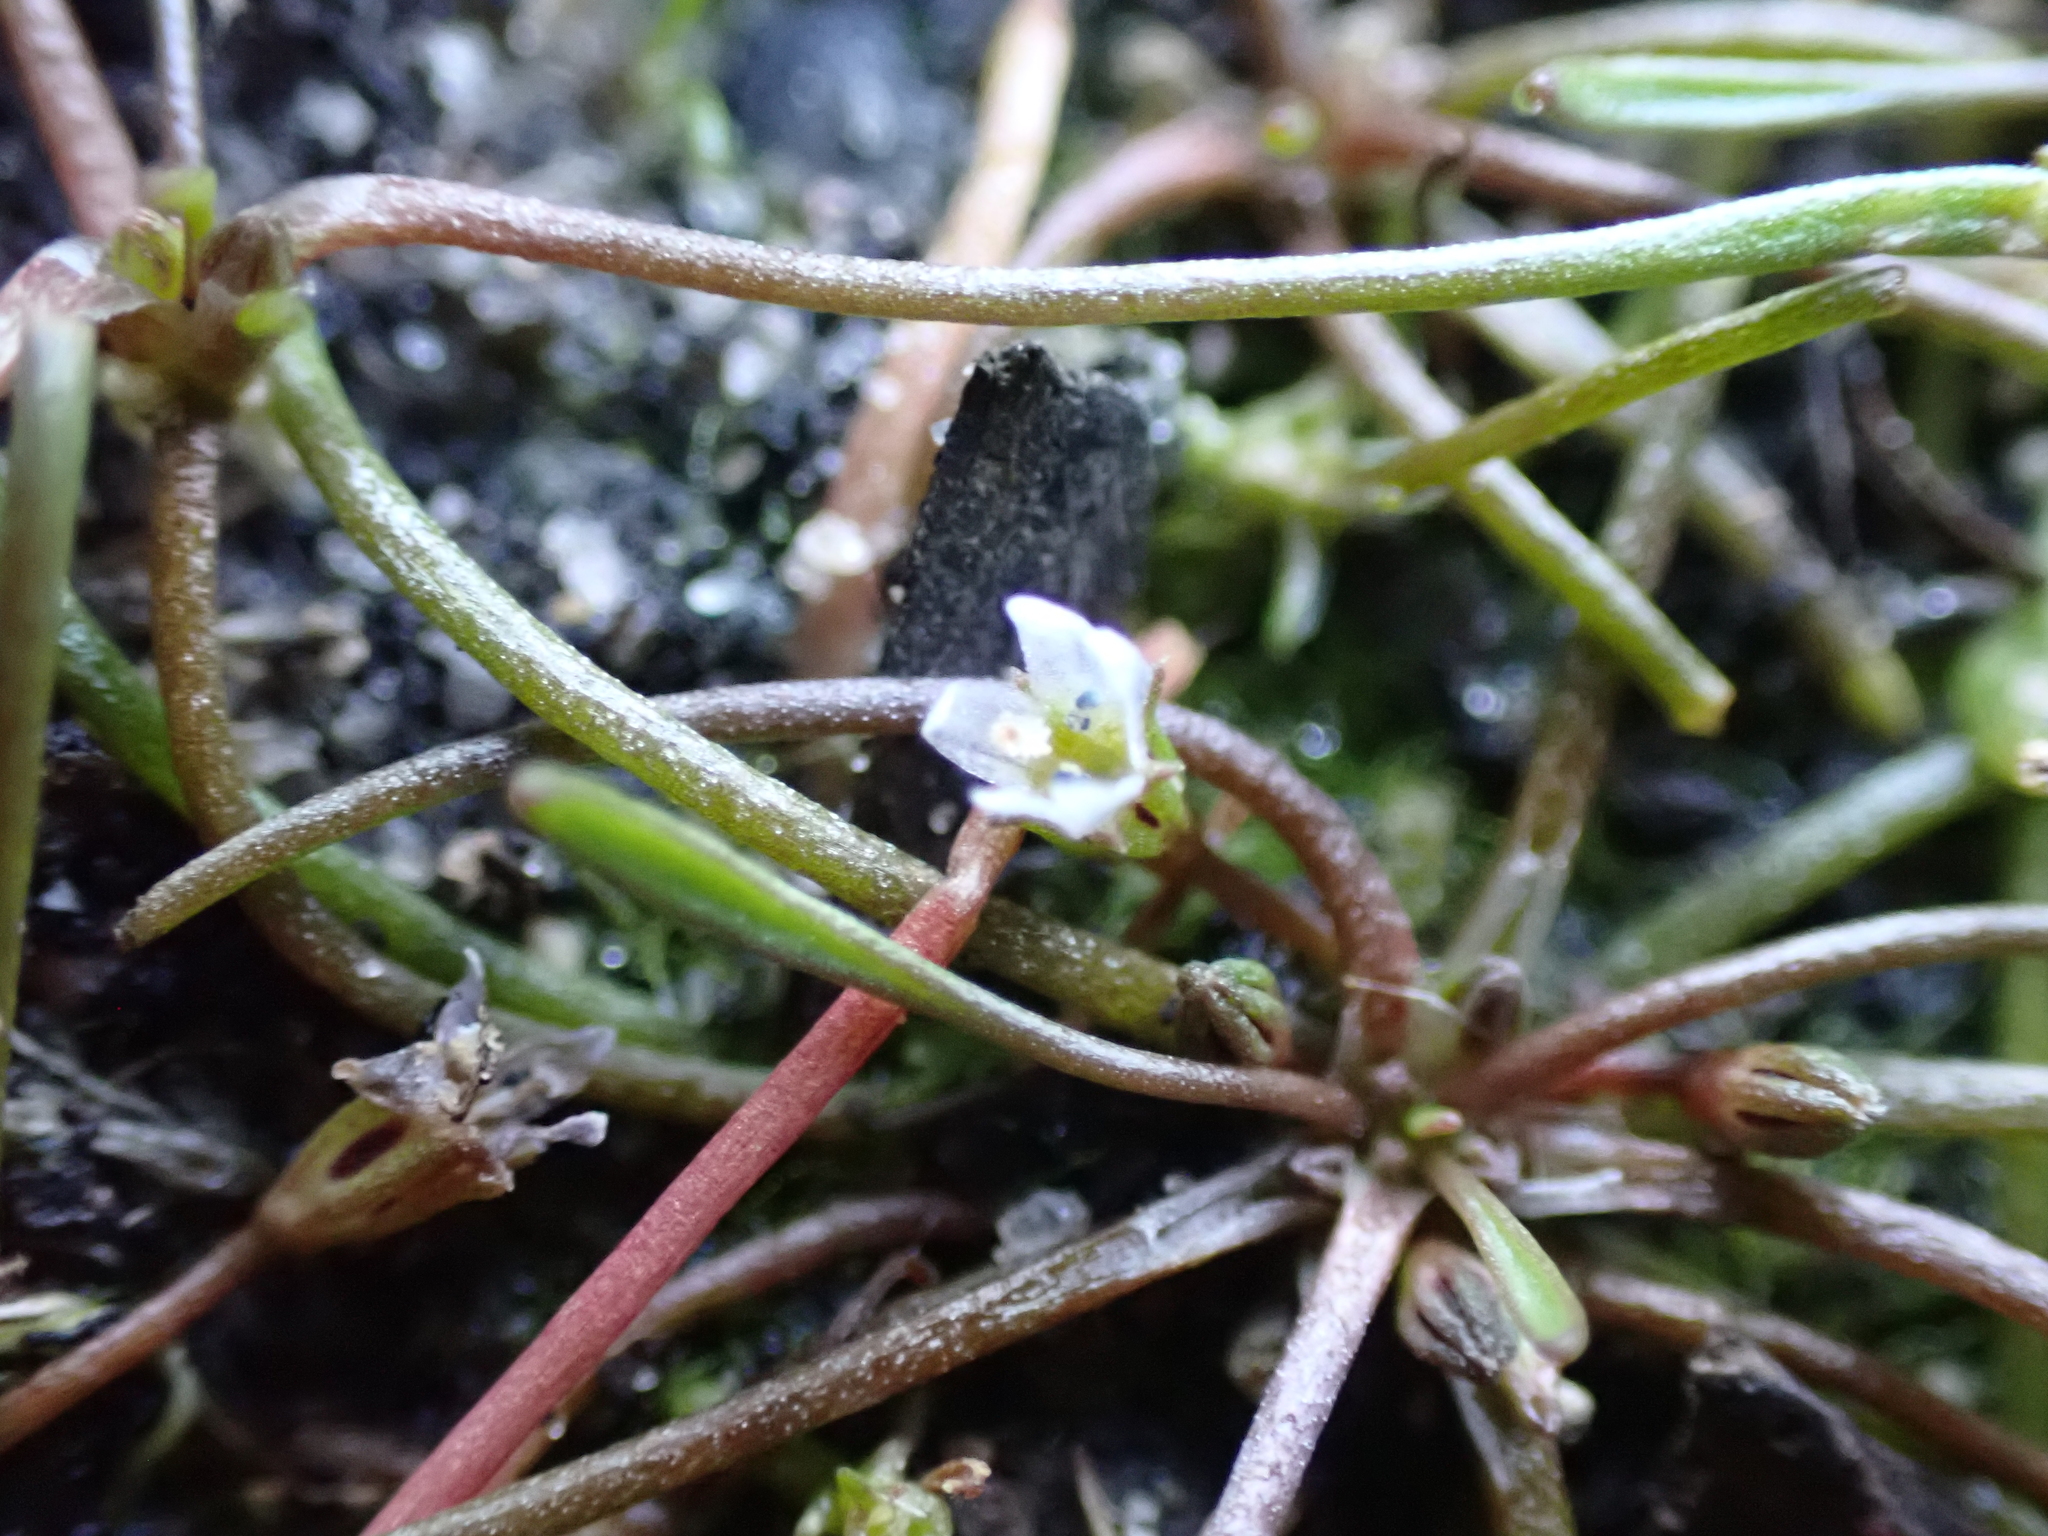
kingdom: Plantae
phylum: Tracheophyta
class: Magnoliopsida
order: Lamiales
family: Scrophulariaceae
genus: Limosella
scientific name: Limosella australis
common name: Welsh mudwort
